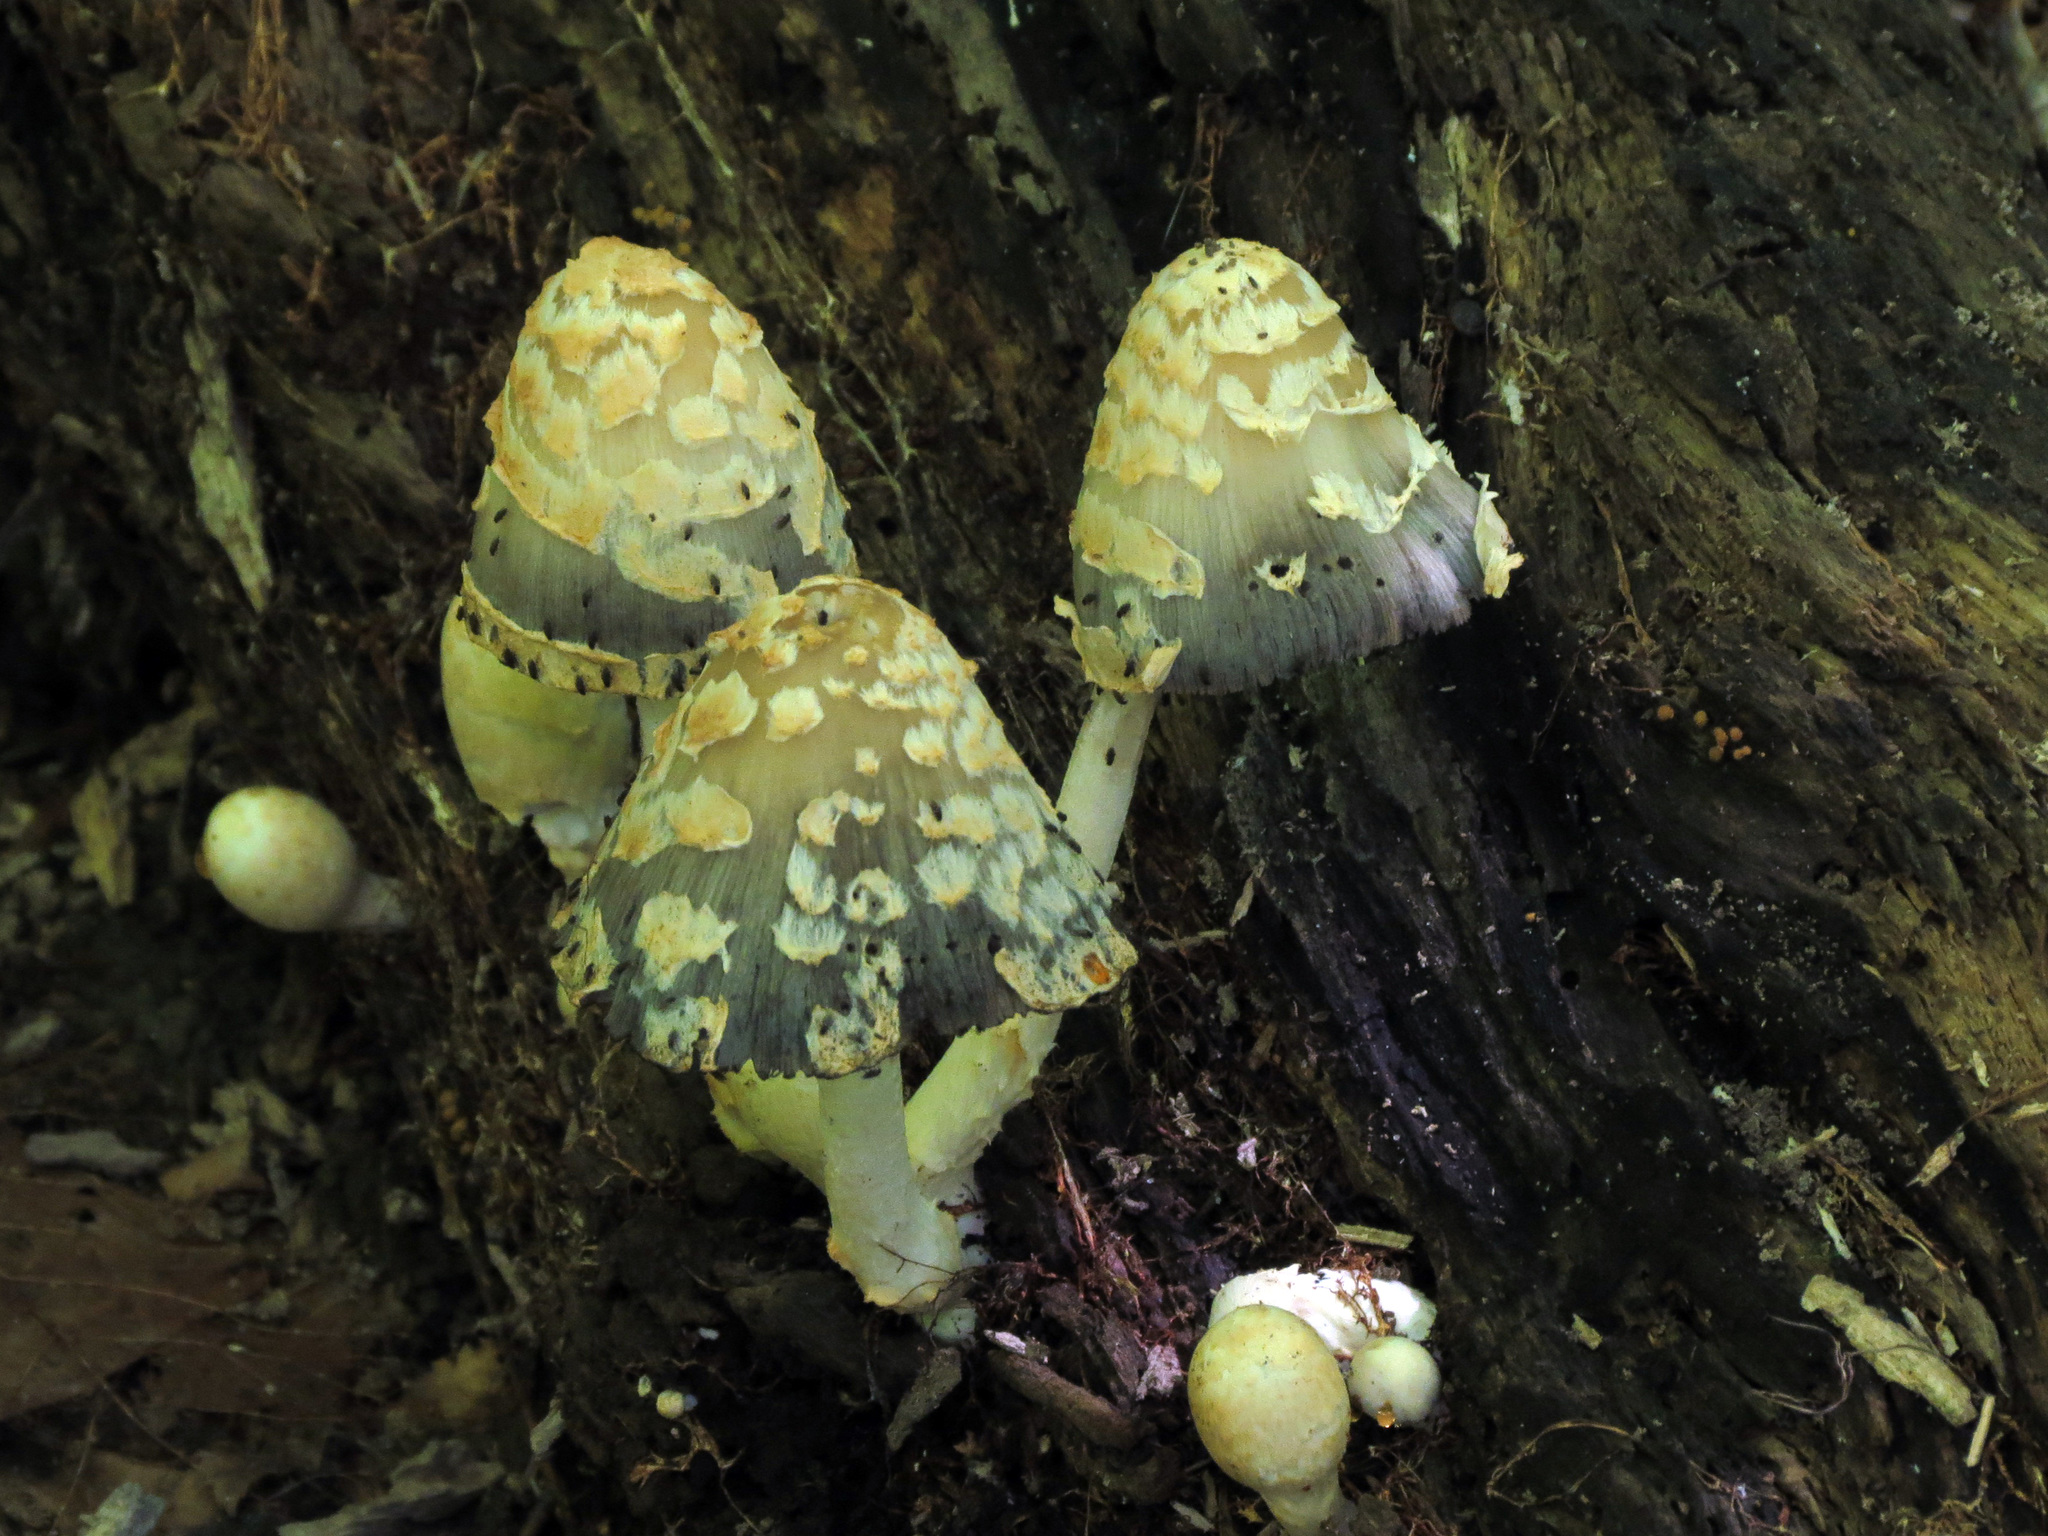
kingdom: Fungi
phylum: Basidiomycota
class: Agaricomycetes
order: Agaricales
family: Psathyrellaceae
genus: Coprinopsis
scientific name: Coprinopsis variegata
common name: Scaly ink cap
